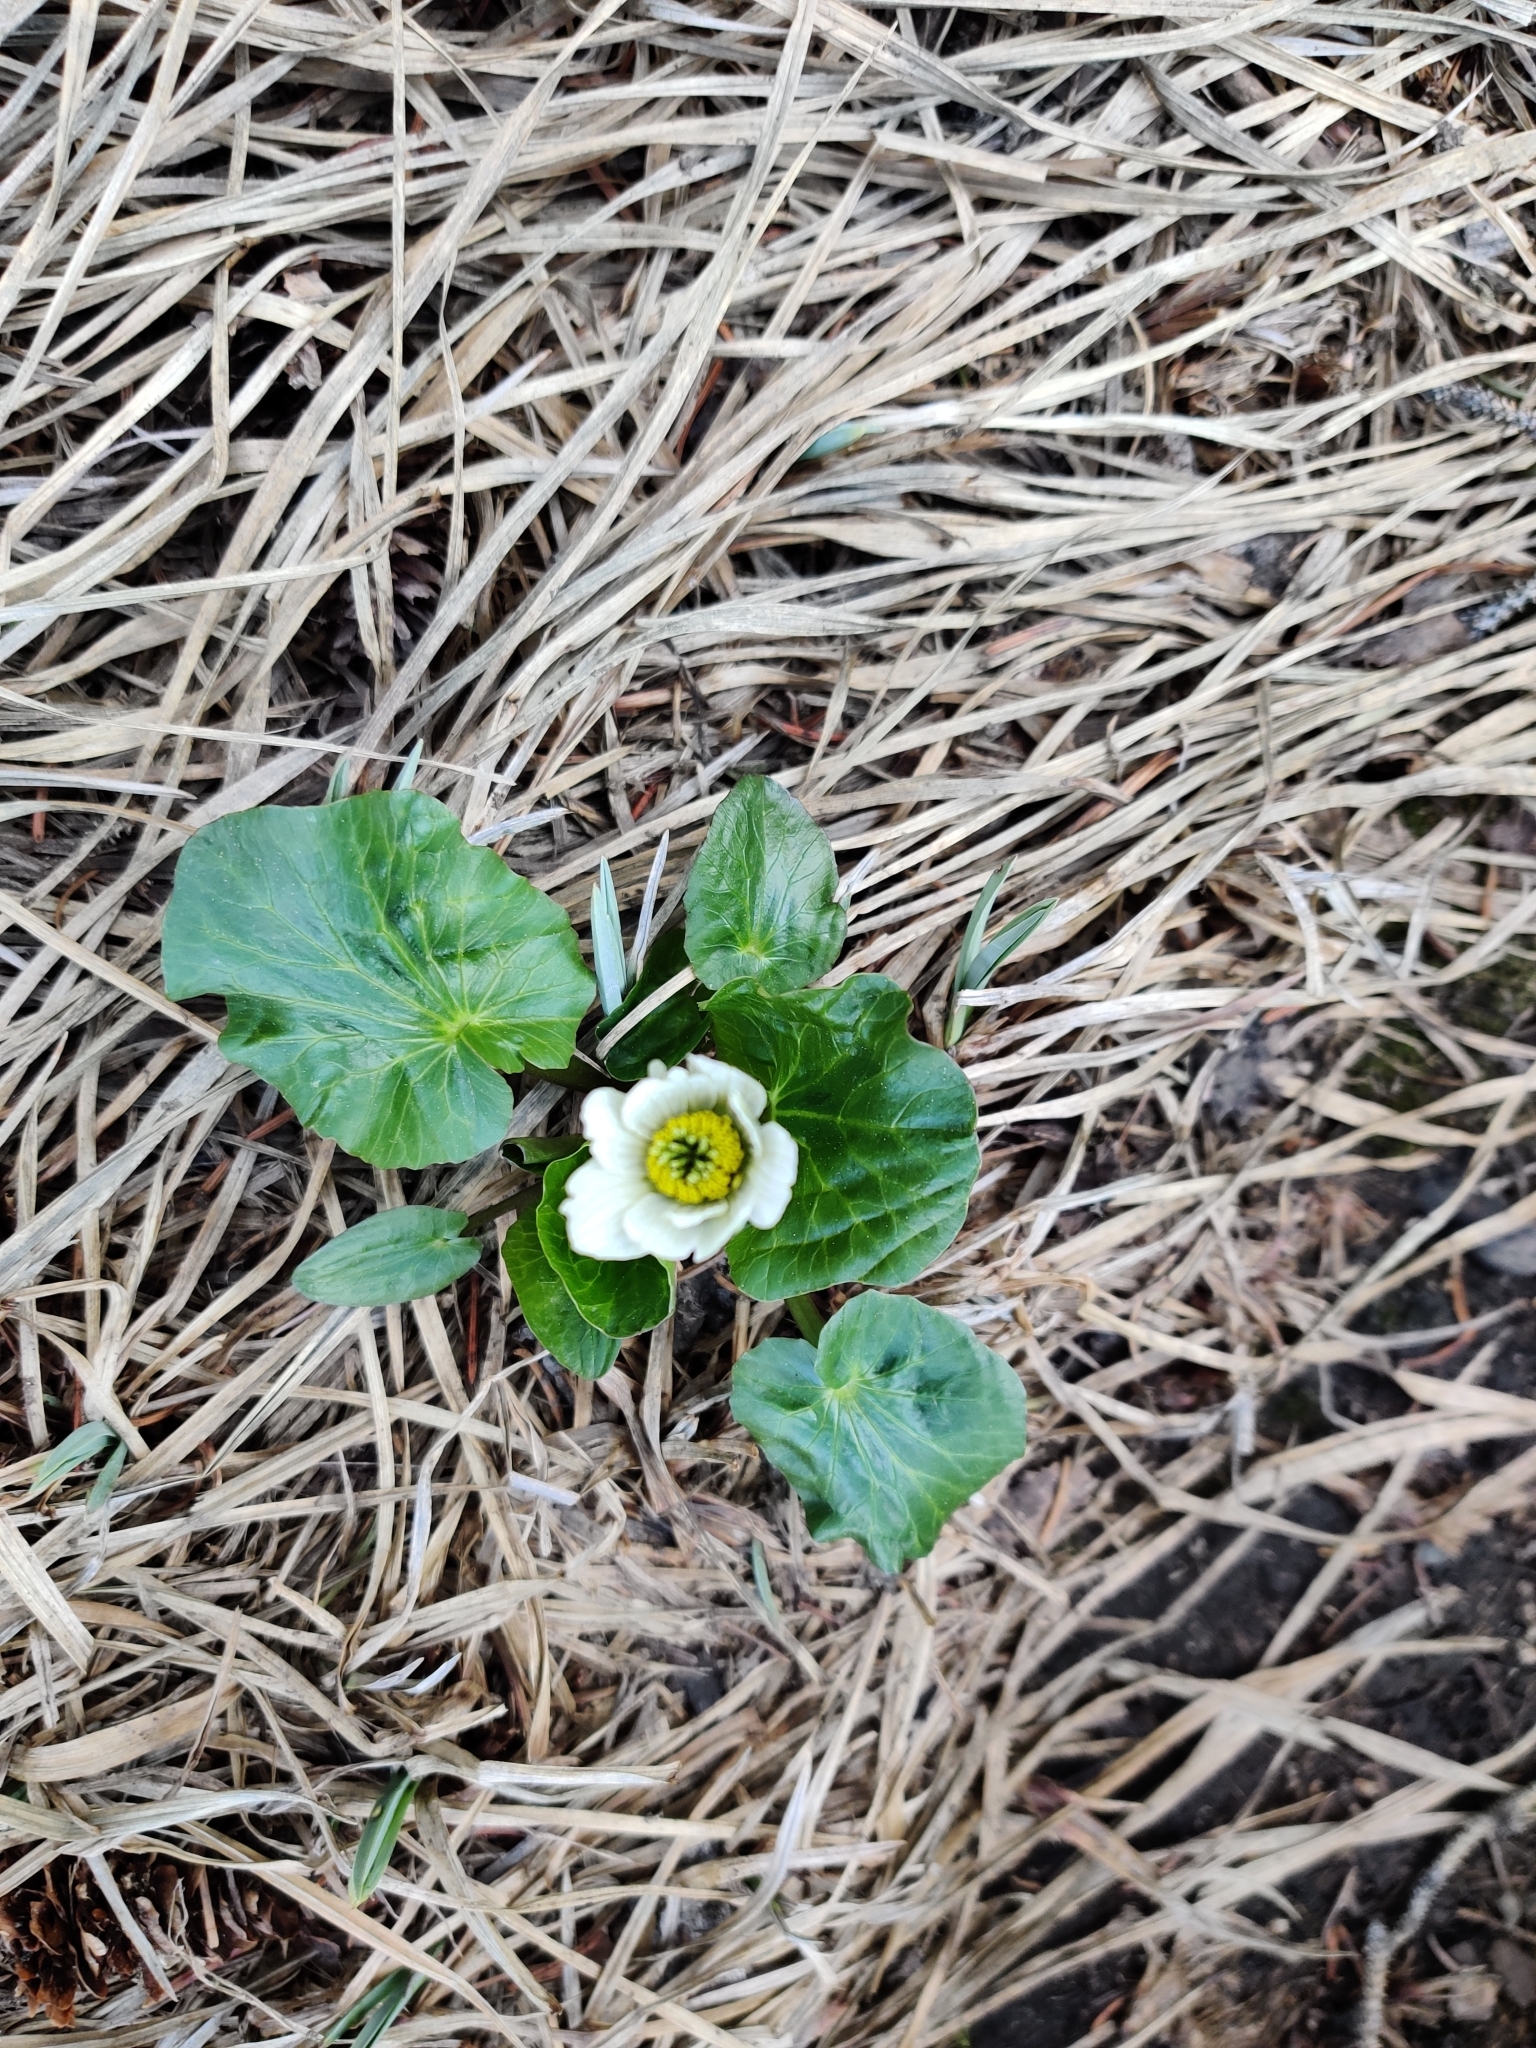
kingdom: Plantae
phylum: Tracheophyta
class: Magnoliopsida
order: Ranunculales
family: Ranunculaceae
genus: Caltha
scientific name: Caltha leptosepala
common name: Elkslip
